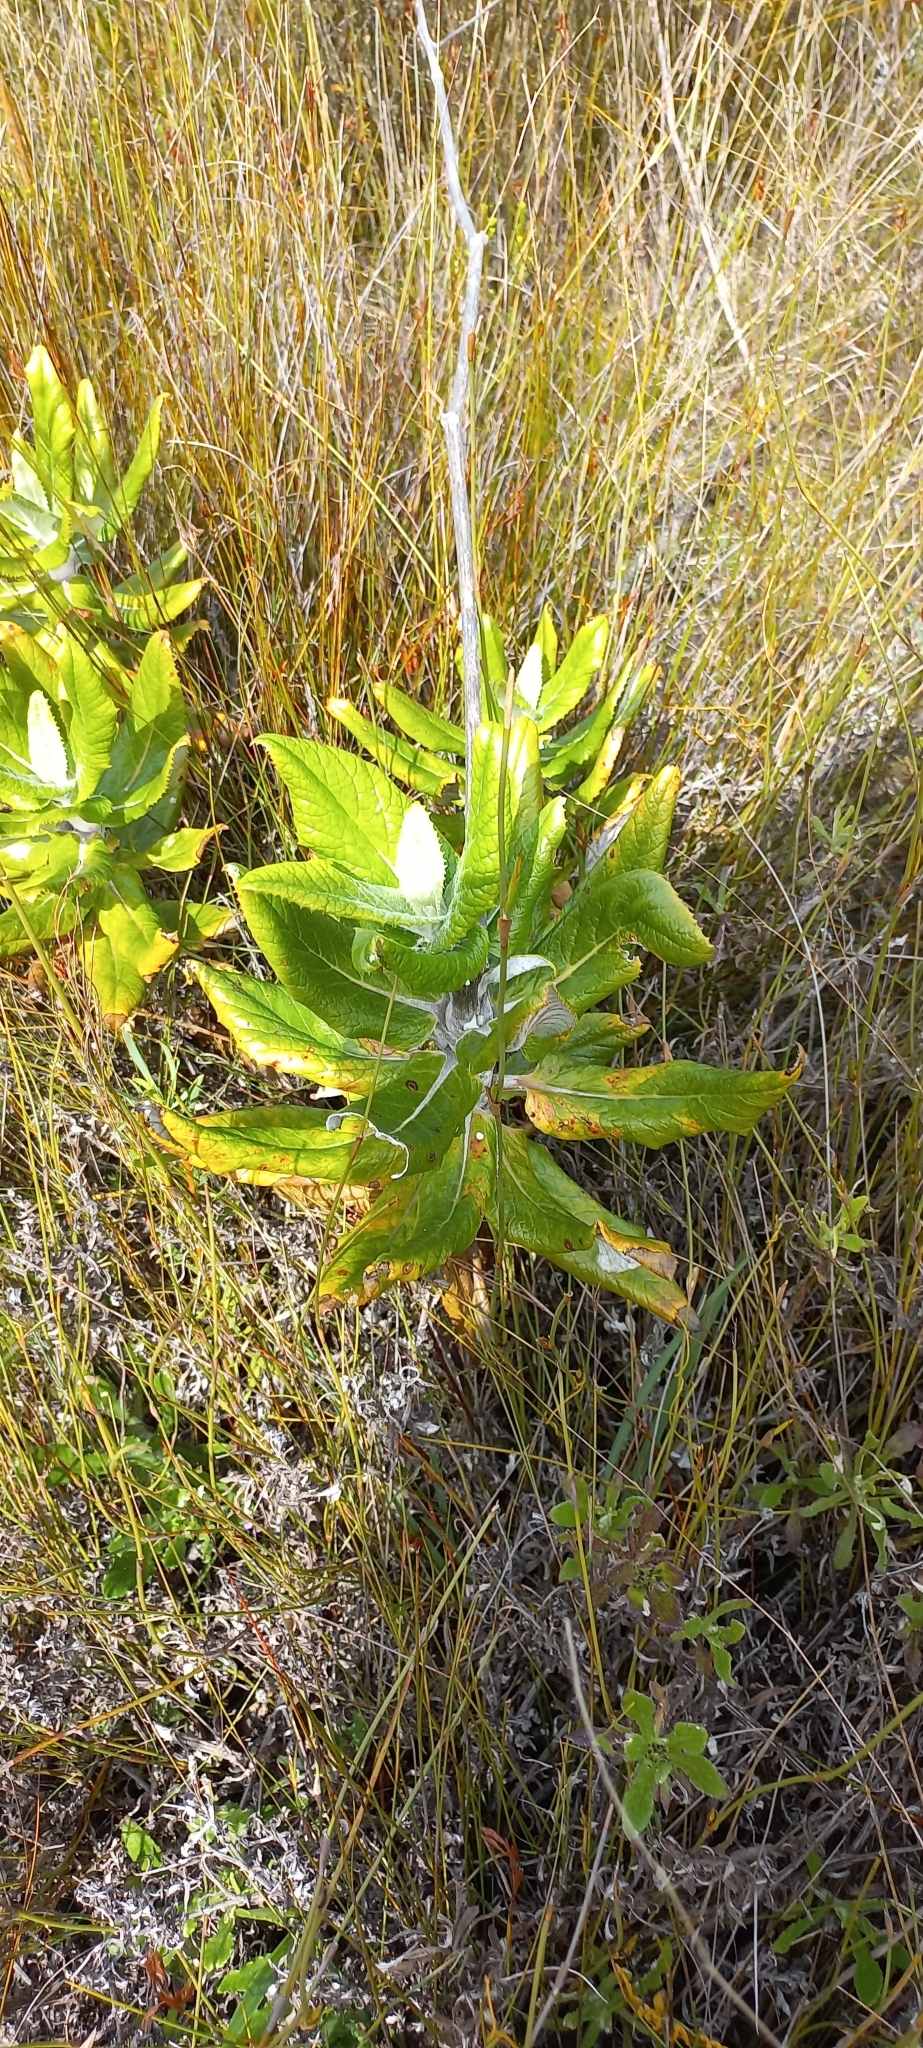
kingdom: Plantae
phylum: Tracheophyta
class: Magnoliopsida
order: Apiales
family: Apiaceae
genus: Hermas
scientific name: Hermas villosa
